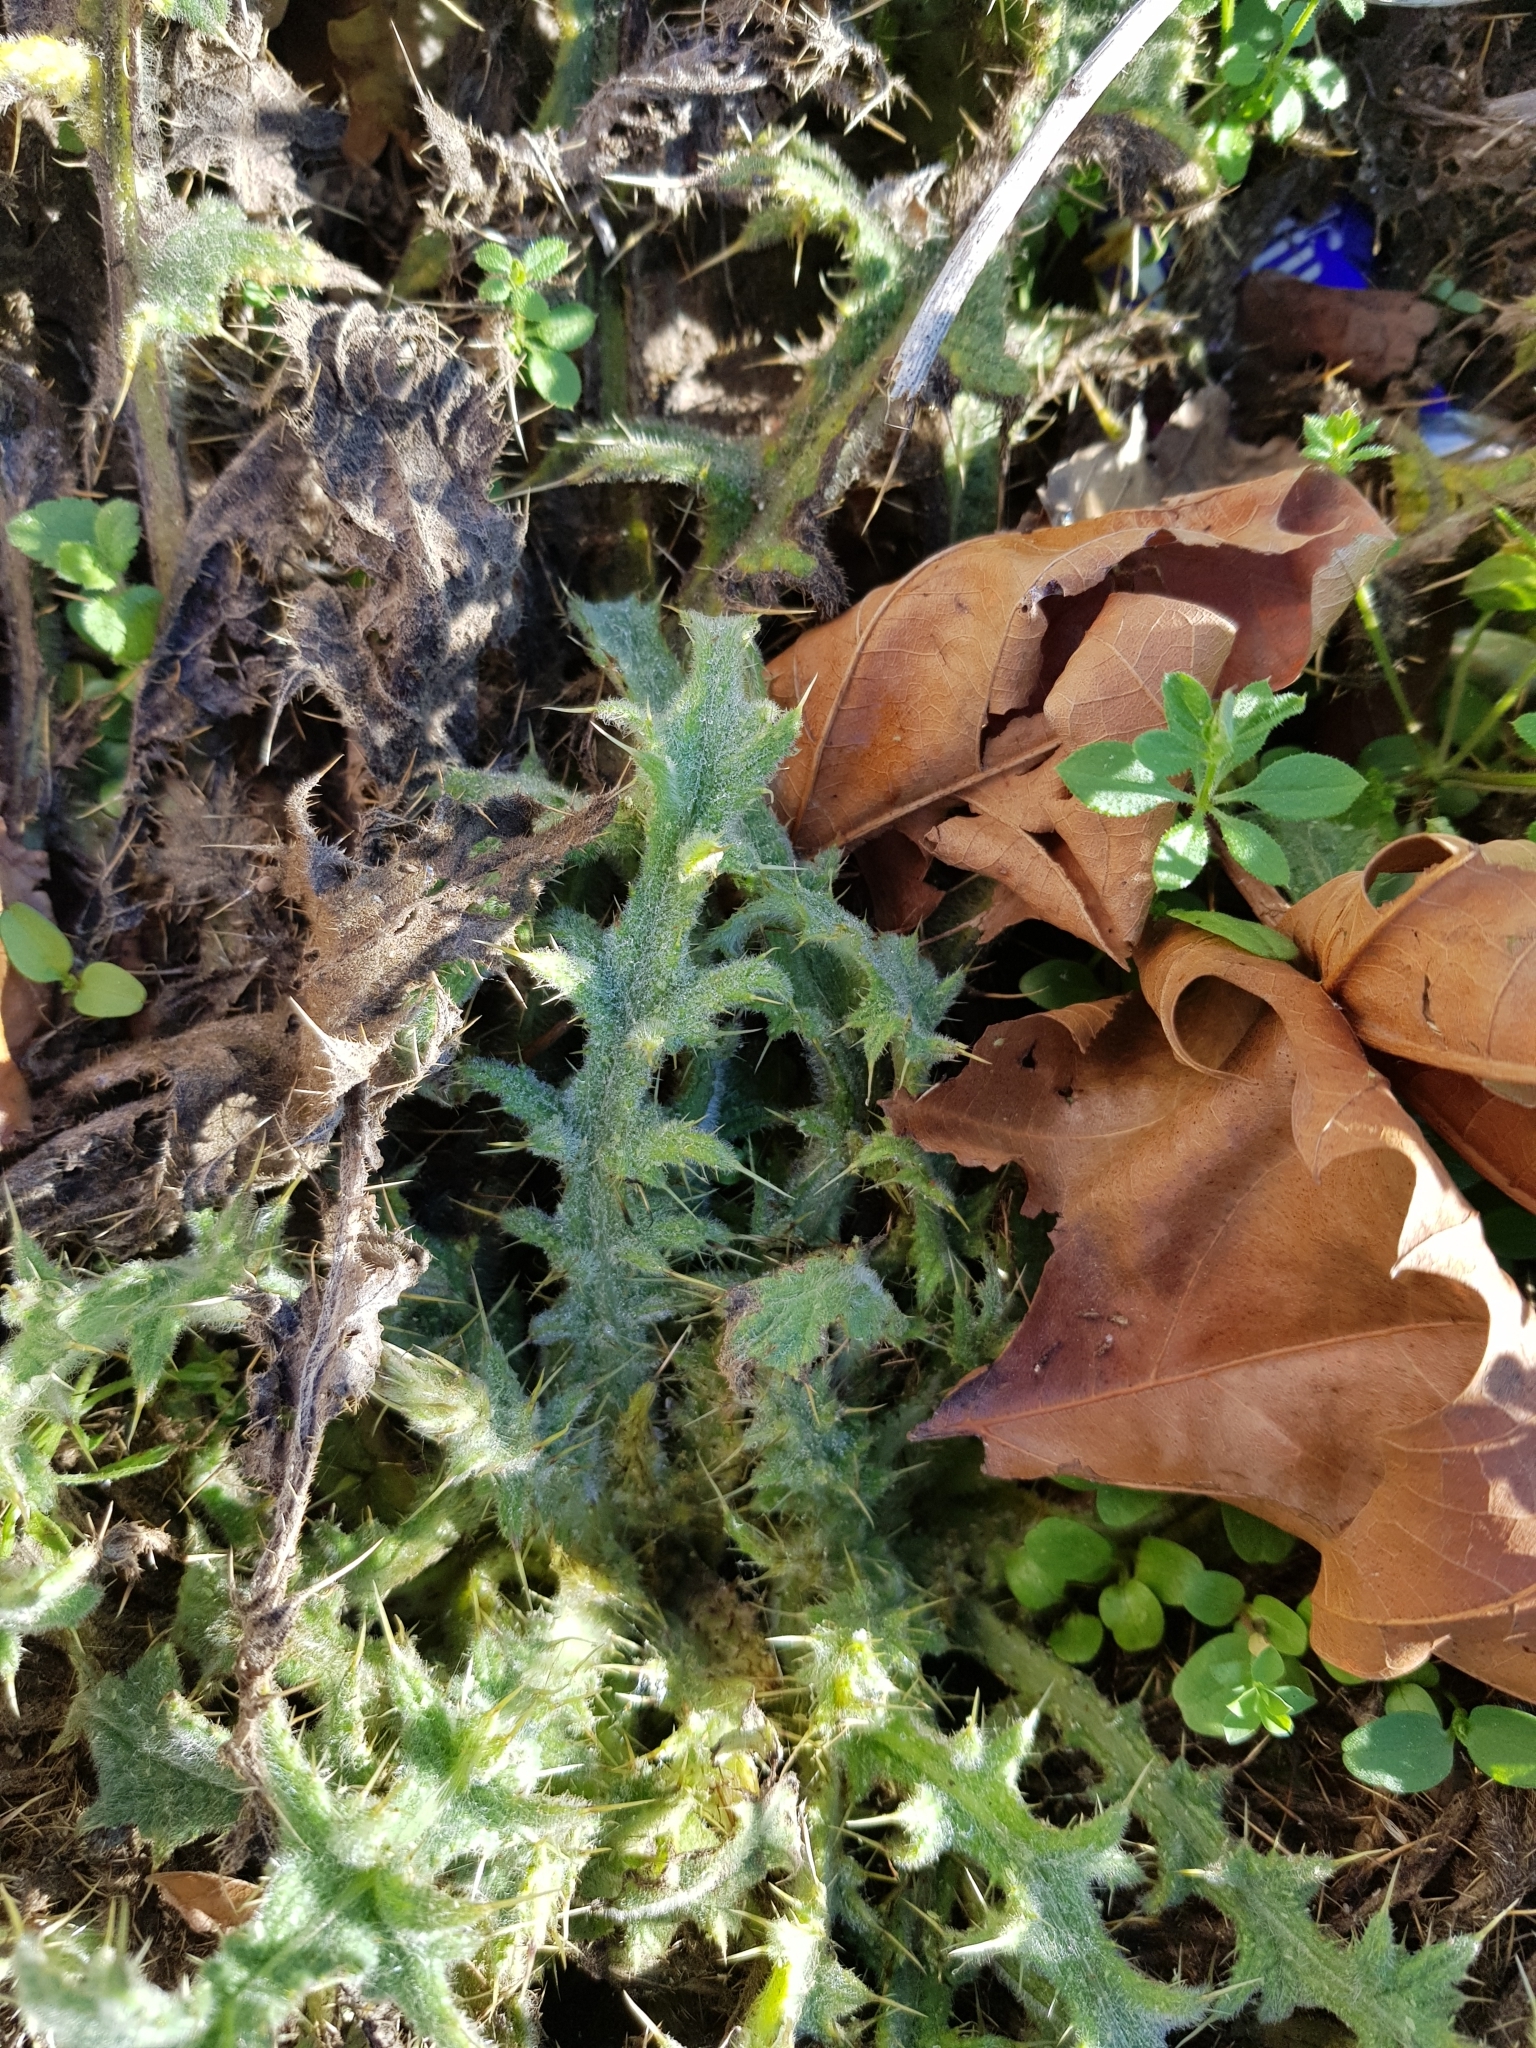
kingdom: Plantae
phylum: Tracheophyta
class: Magnoliopsida
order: Asterales
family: Asteraceae
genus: Cirsium
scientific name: Cirsium vulgare
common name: Bull thistle
